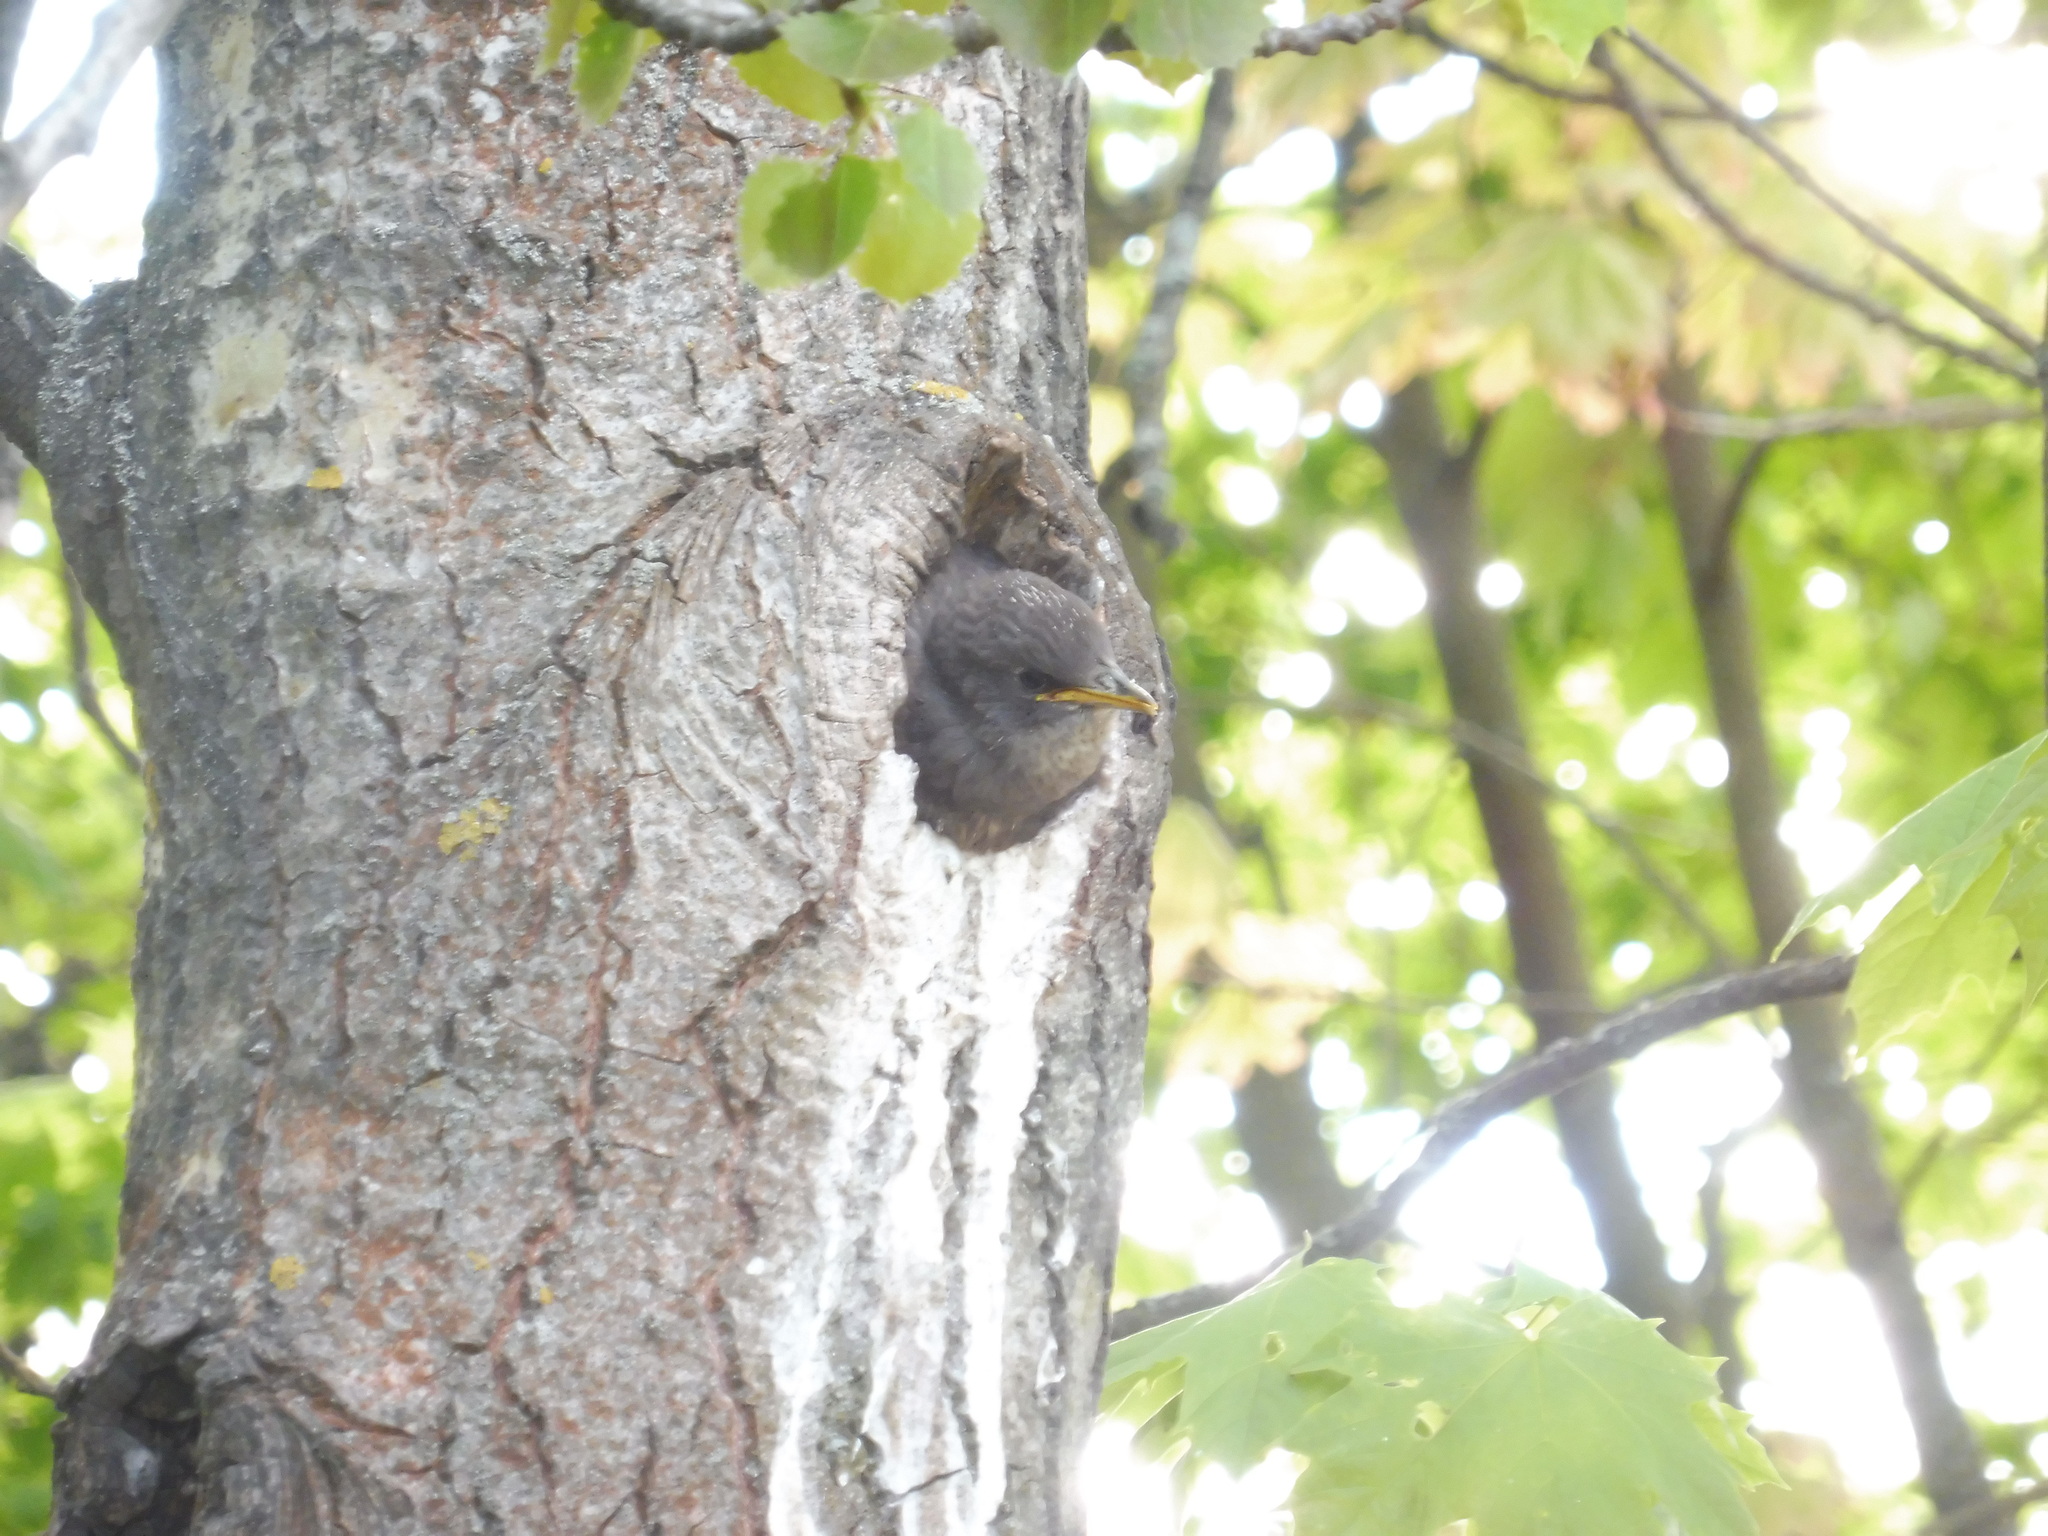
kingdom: Animalia
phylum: Chordata
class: Aves
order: Passeriformes
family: Sturnidae
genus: Sturnus
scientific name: Sturnus vulgaris
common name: Common starling
